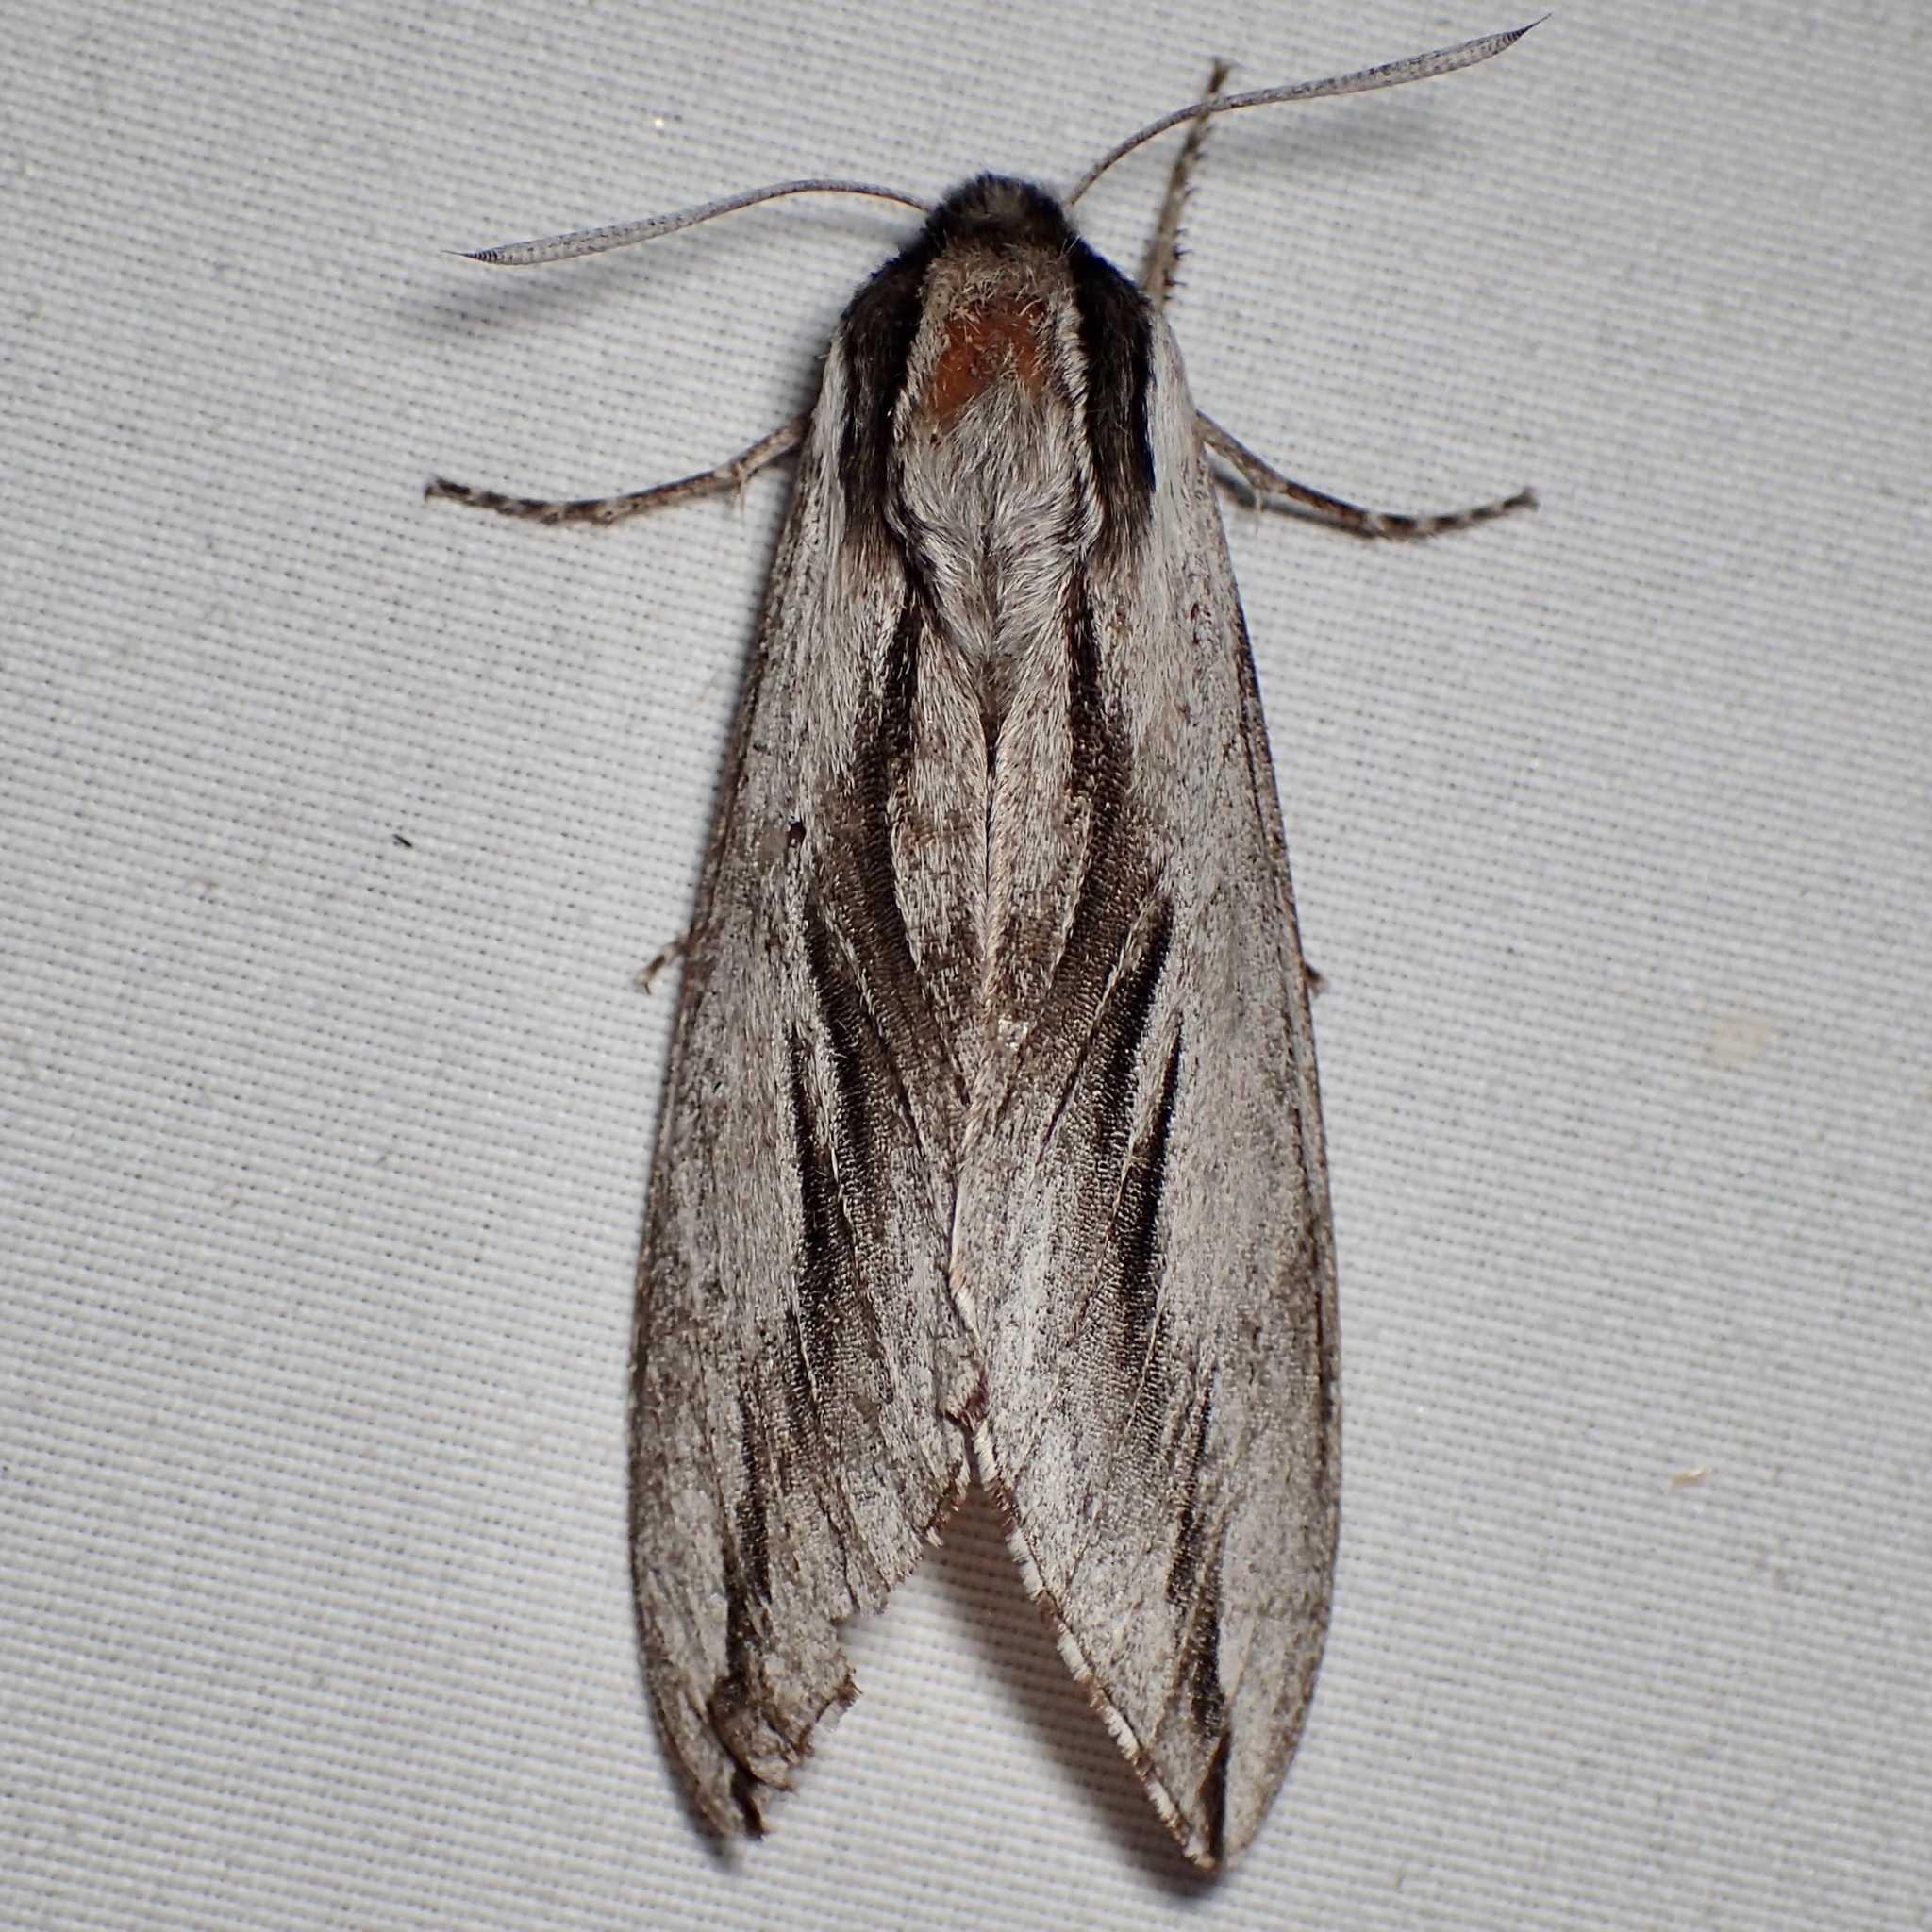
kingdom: Animalia
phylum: Arthropoda
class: Insecta
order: Lepidoptera
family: Sphingidae
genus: Sphinx
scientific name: Sphinx dollii
